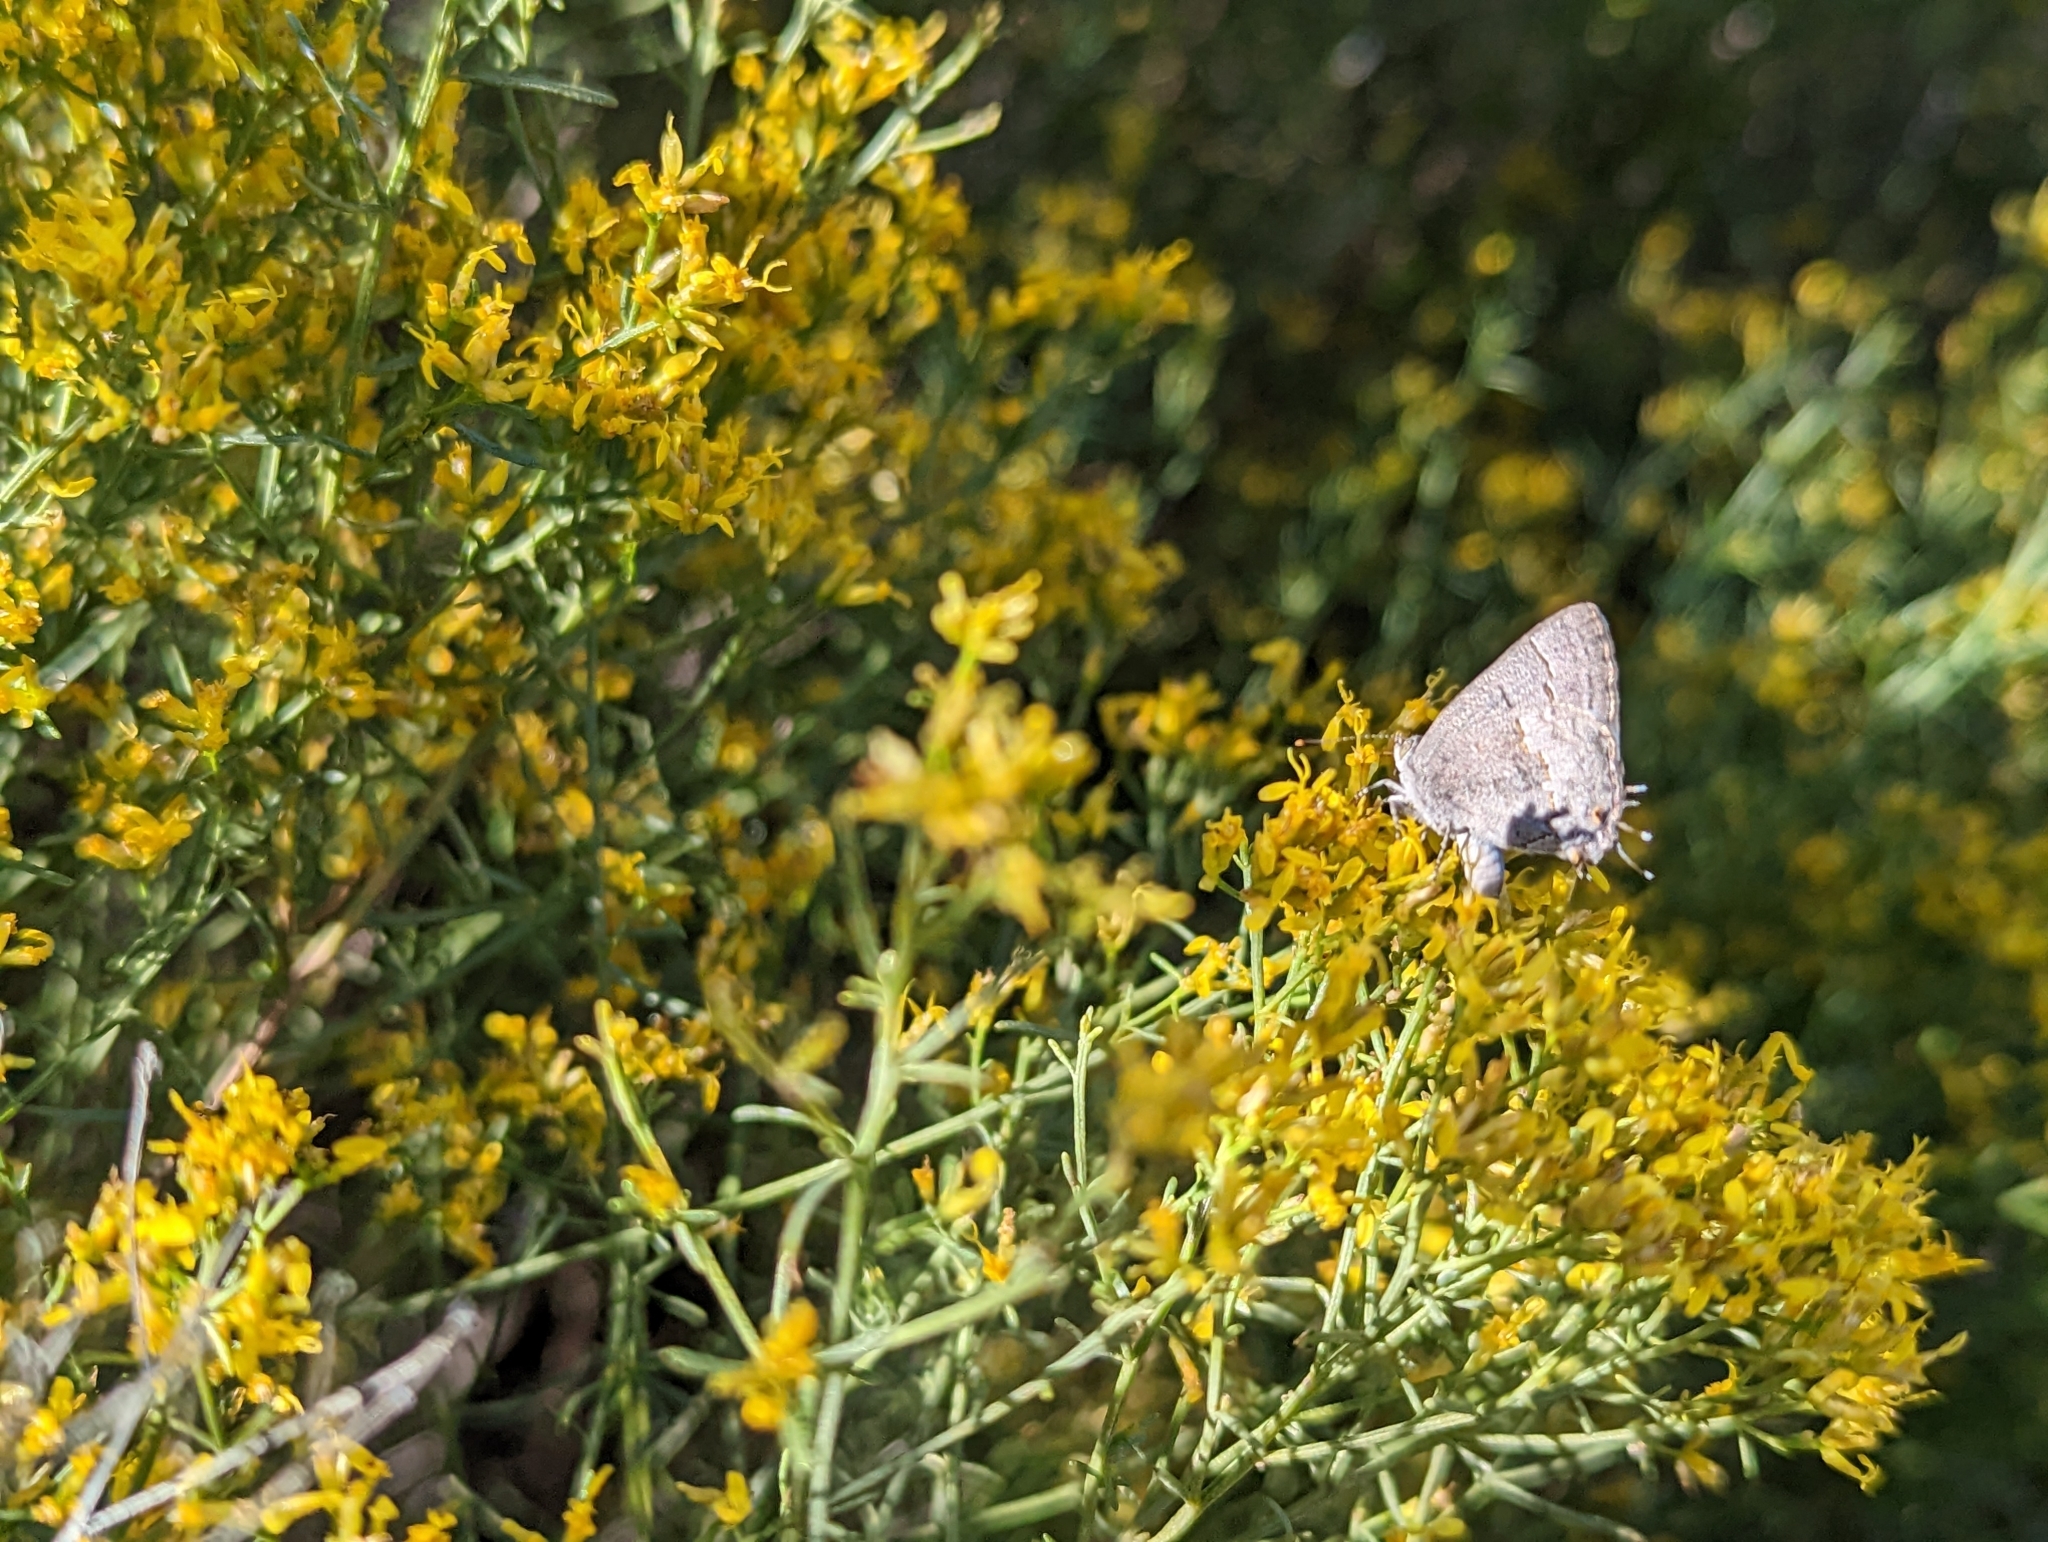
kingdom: Animalia
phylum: Arthropoda
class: Insecta
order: Lepidoptera
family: Lycaenidae
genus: Ministrymon
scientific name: Ministrymon leda
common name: Leda ministreak
